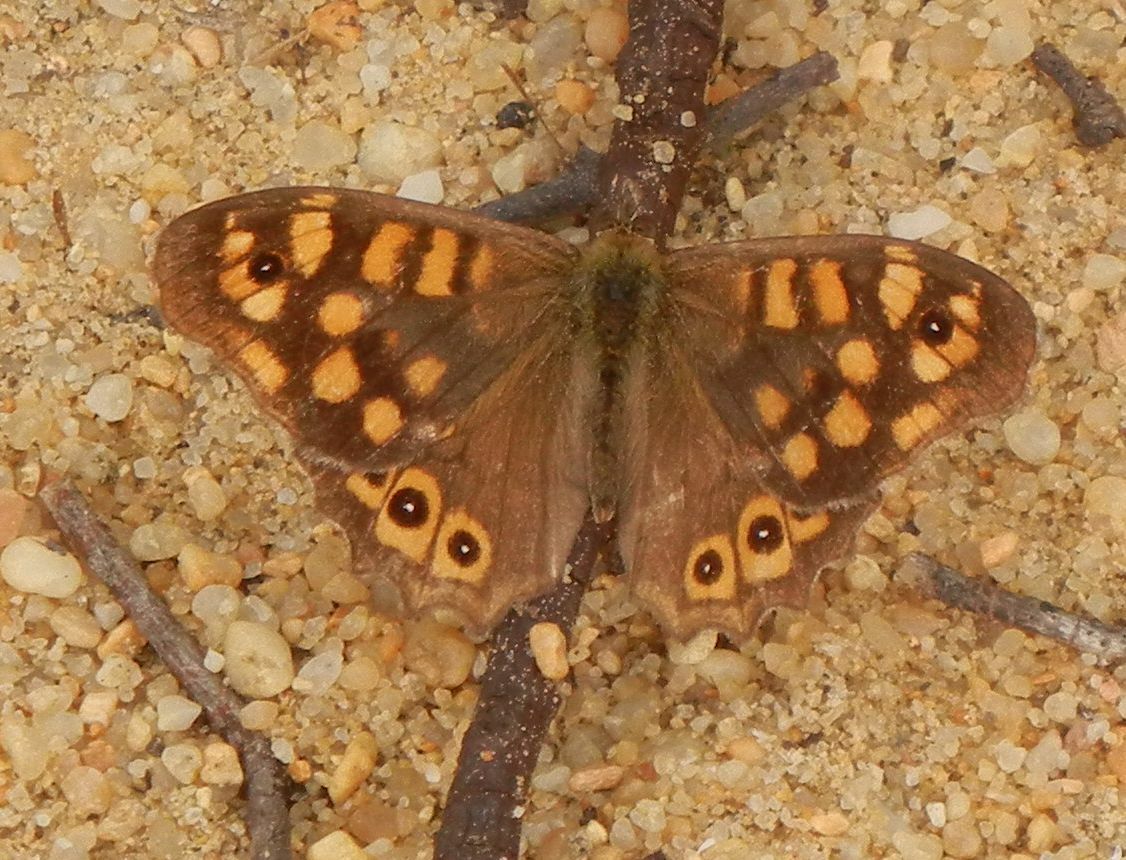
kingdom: Animalia
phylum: Arthropoda
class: Insecta
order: Lepidoptera
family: Nymphalidae
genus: Pararge
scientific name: Pararge aegeria
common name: Speckled wood
